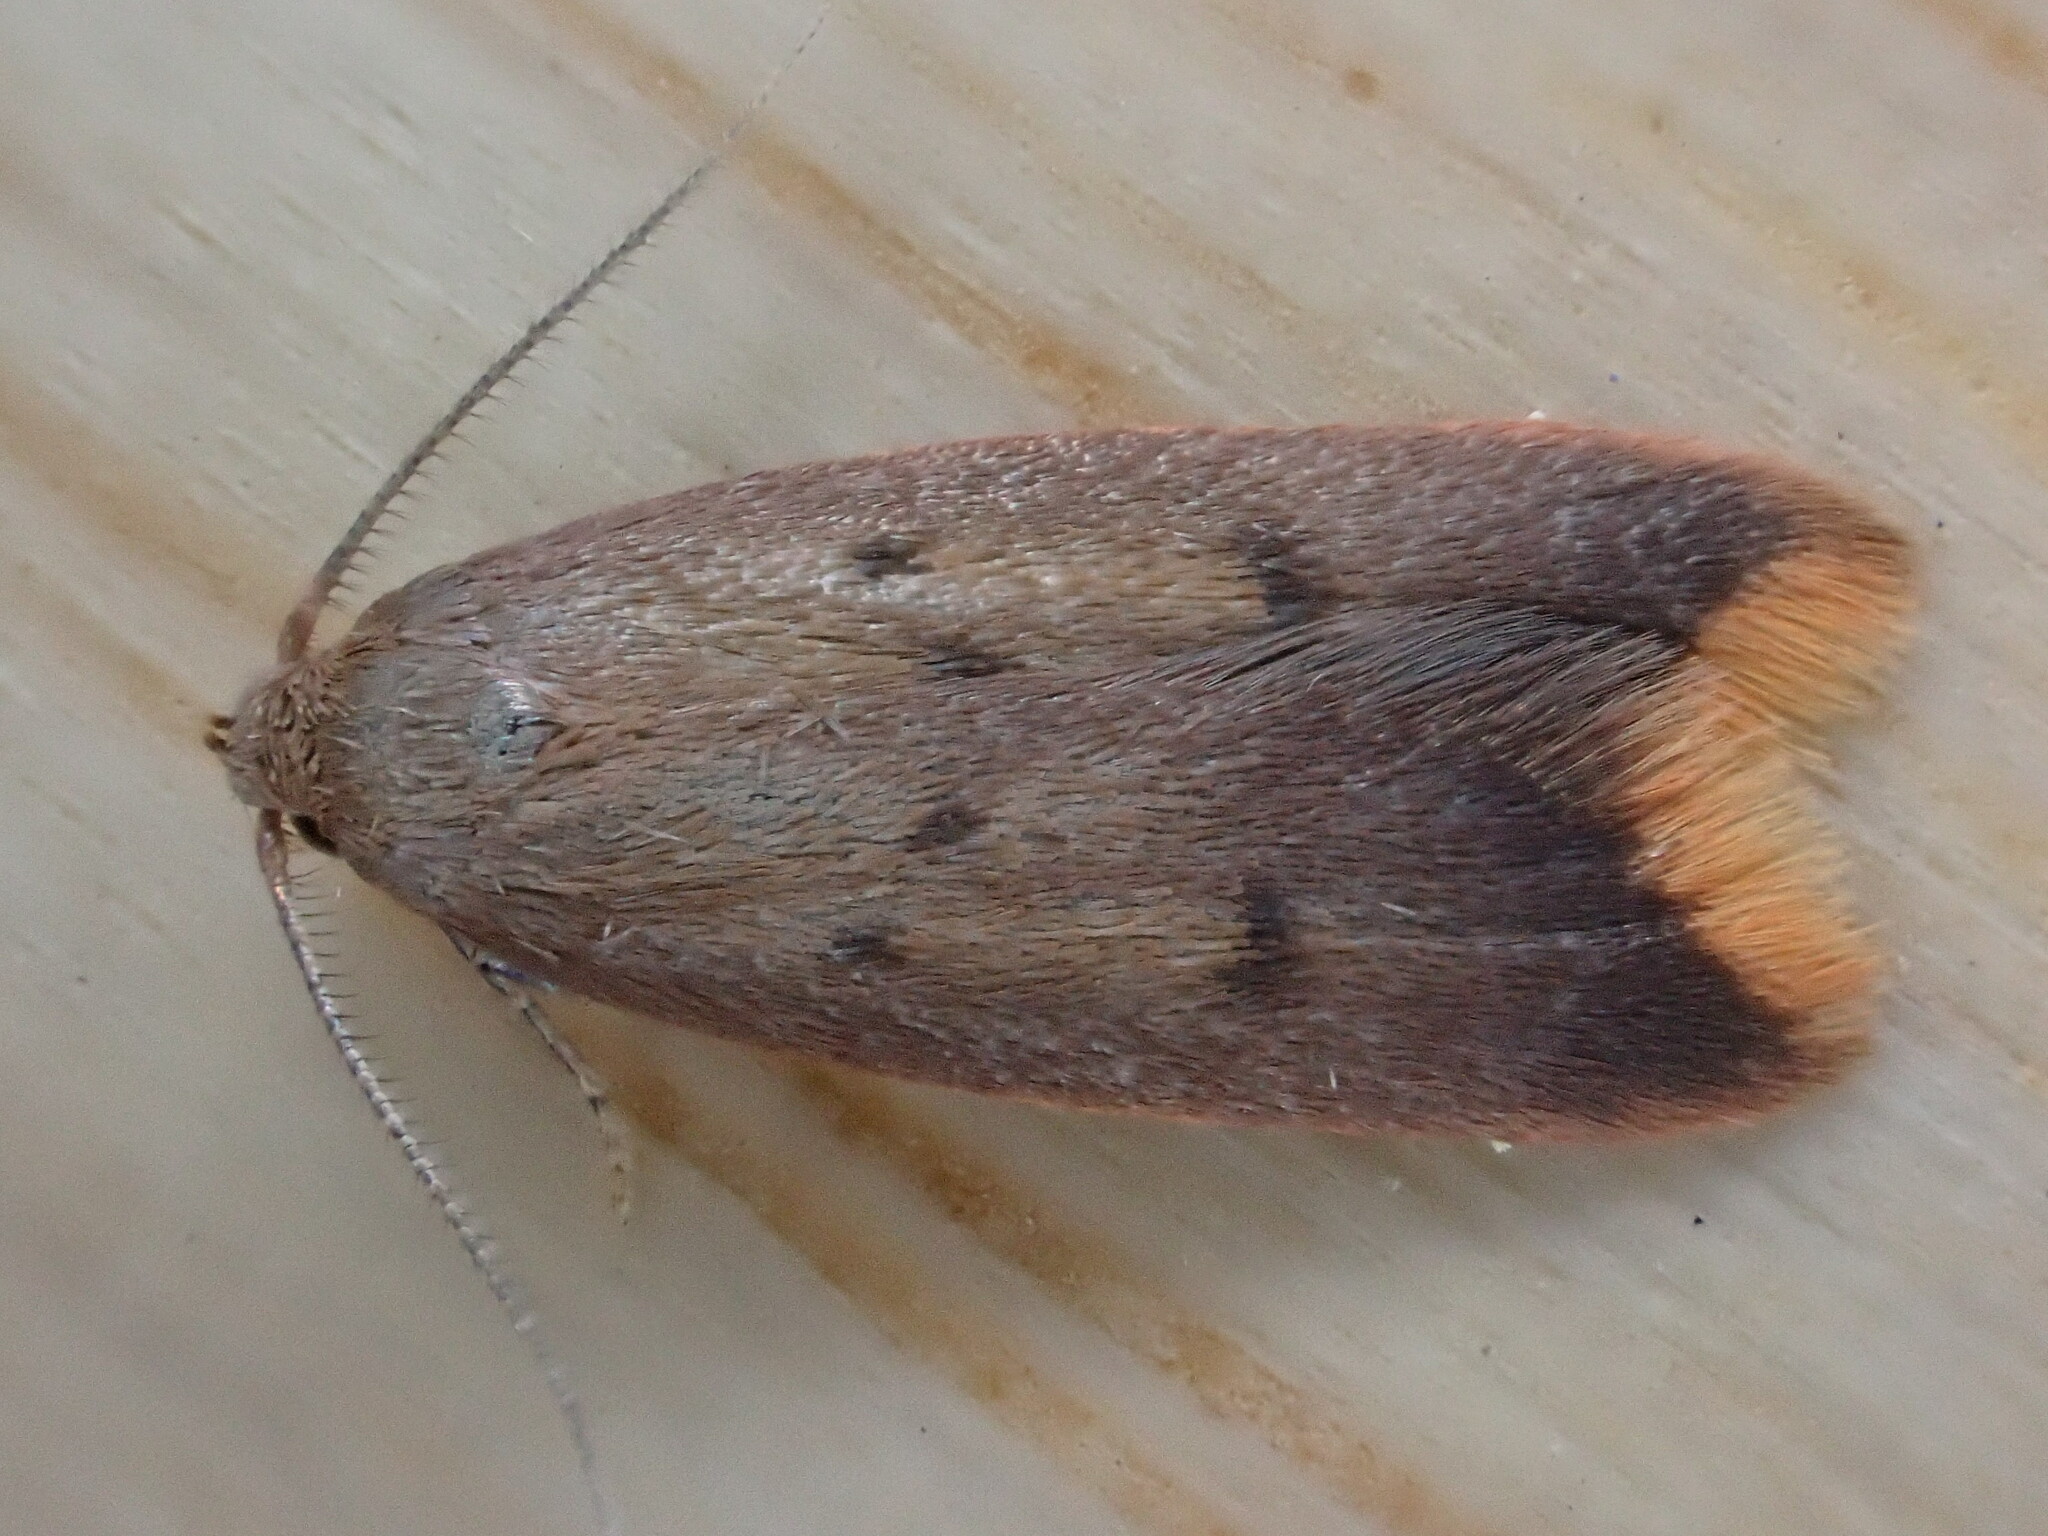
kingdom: Animalia
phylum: Arthropoda
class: Insecta
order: Lepidoptera
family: Oecophoridae
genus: Tachystola
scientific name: Tachystola acroxantha
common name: Ruddy streak
